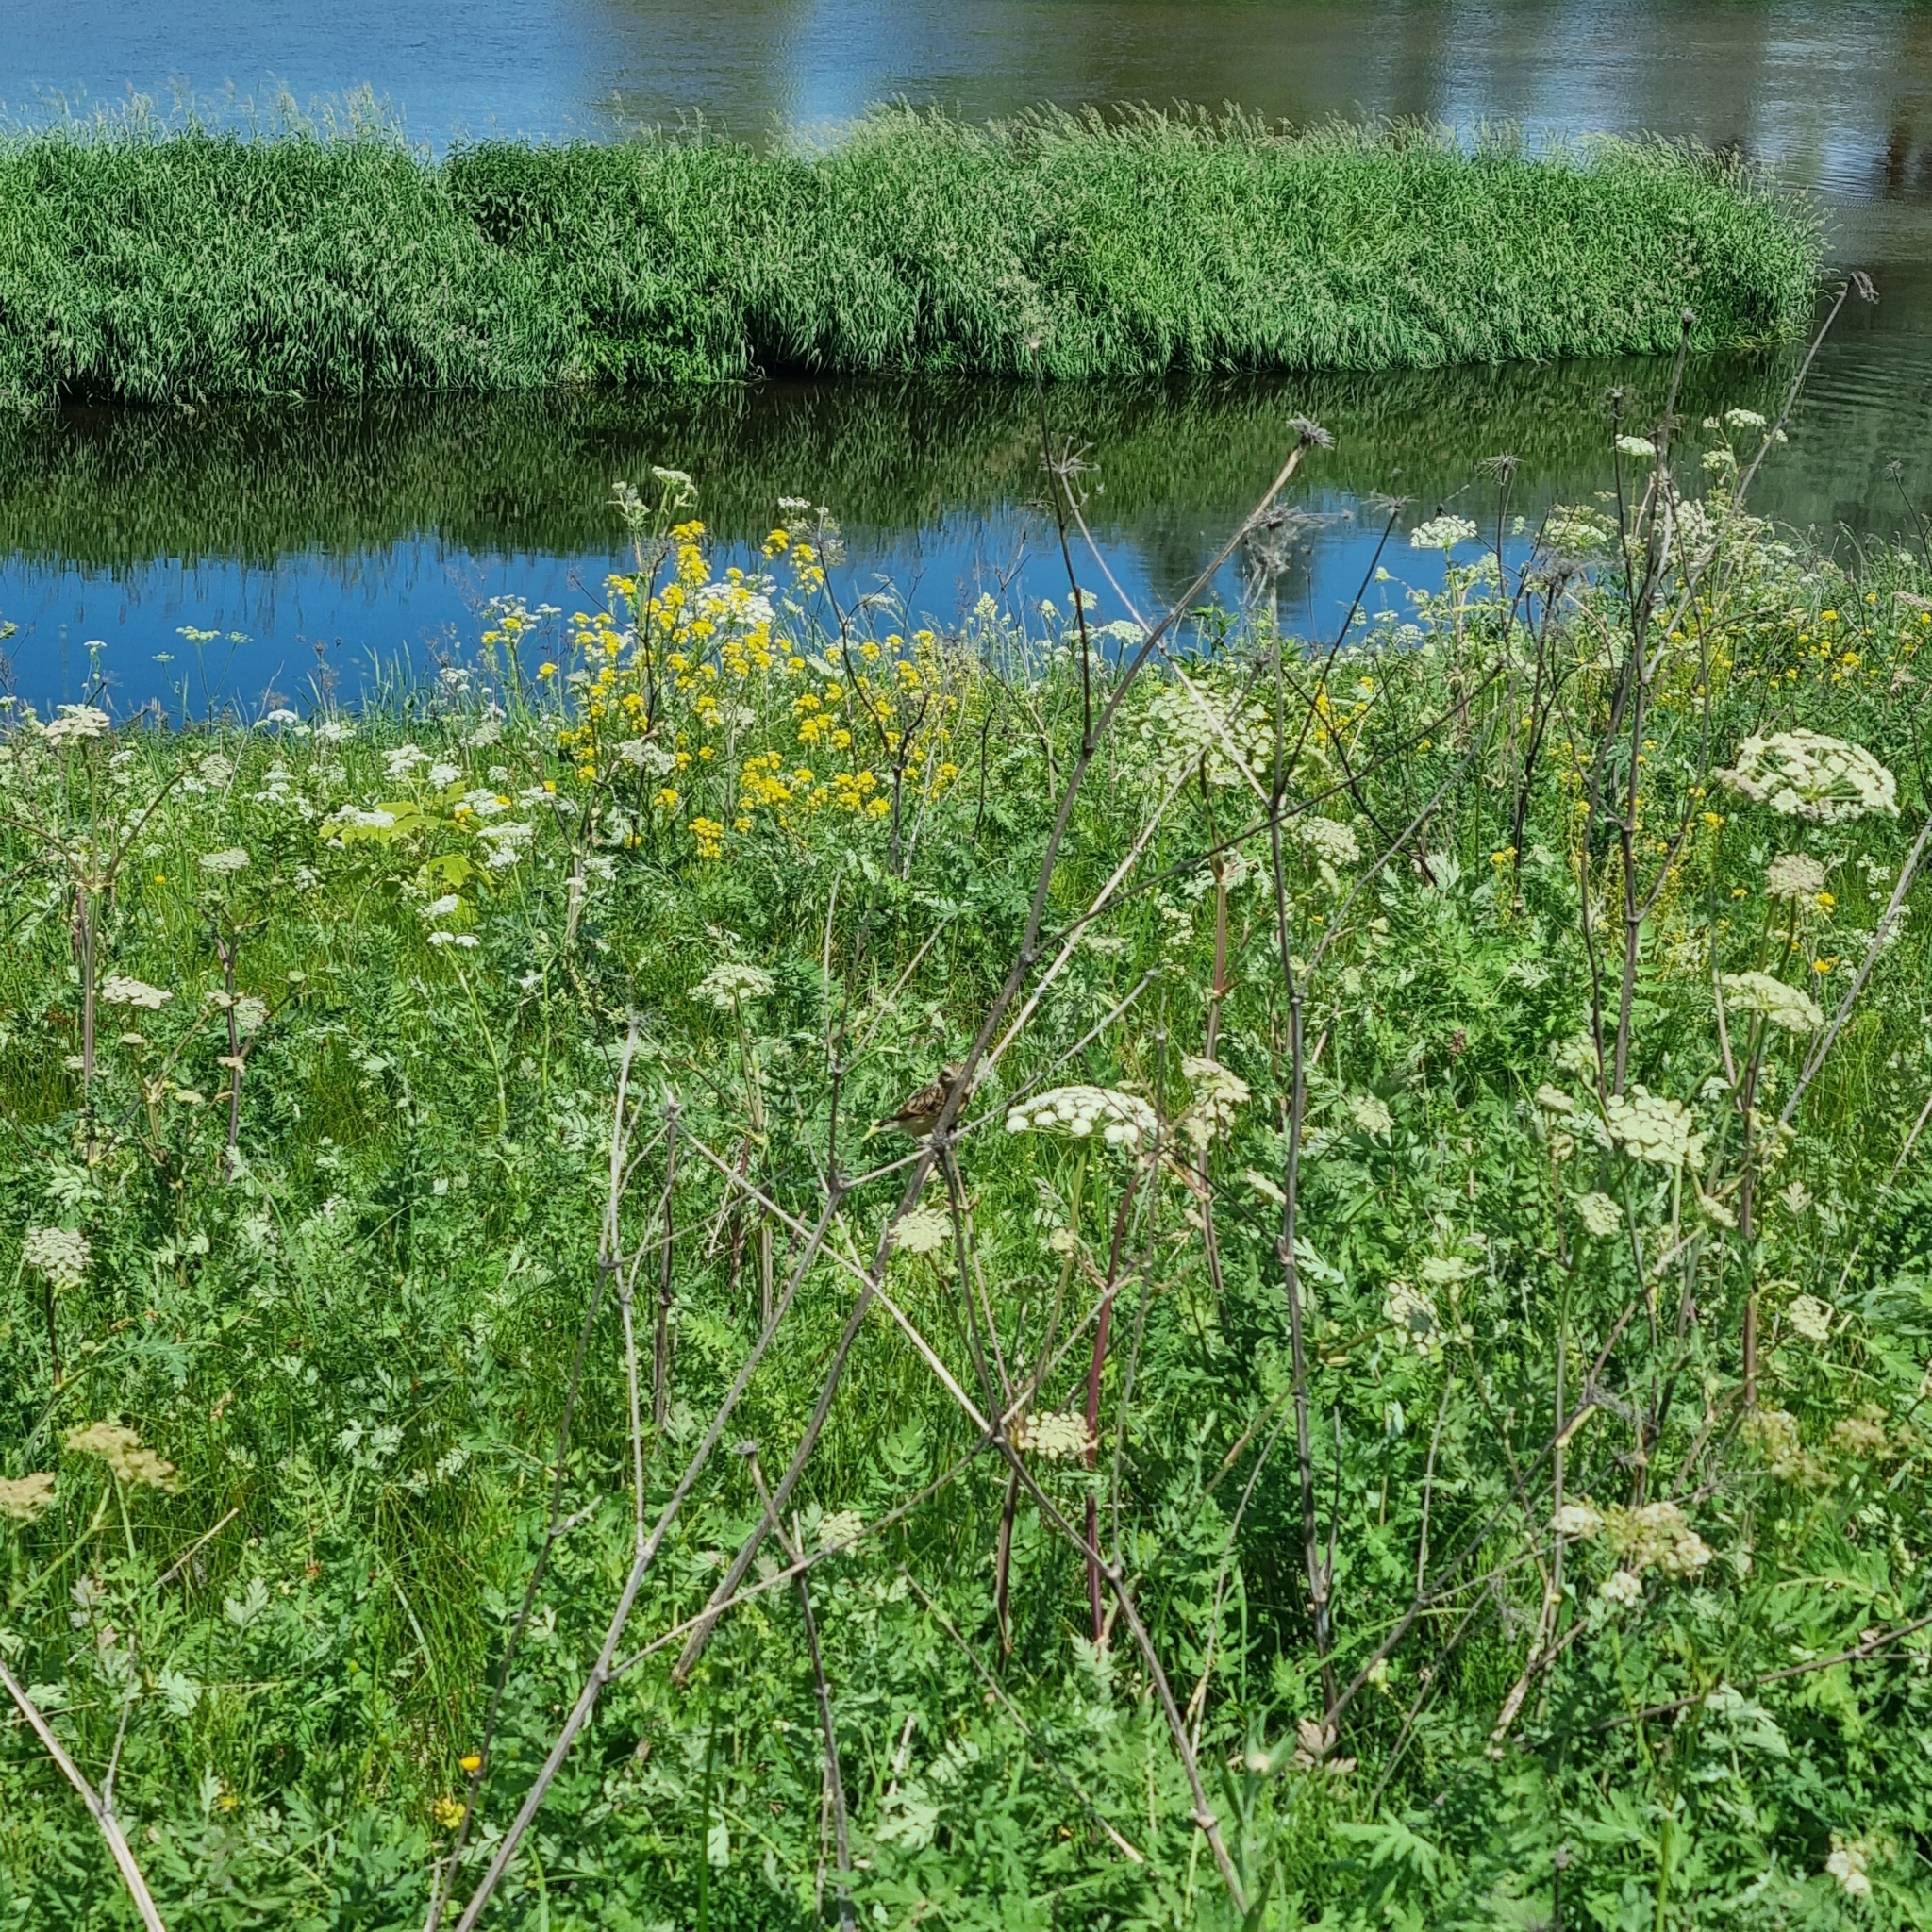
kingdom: Animalia
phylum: Chordata
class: Aves
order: Passeriformes
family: Muscicapidae
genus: Saxicola
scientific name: Saxicola rubetra
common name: Whinchat
